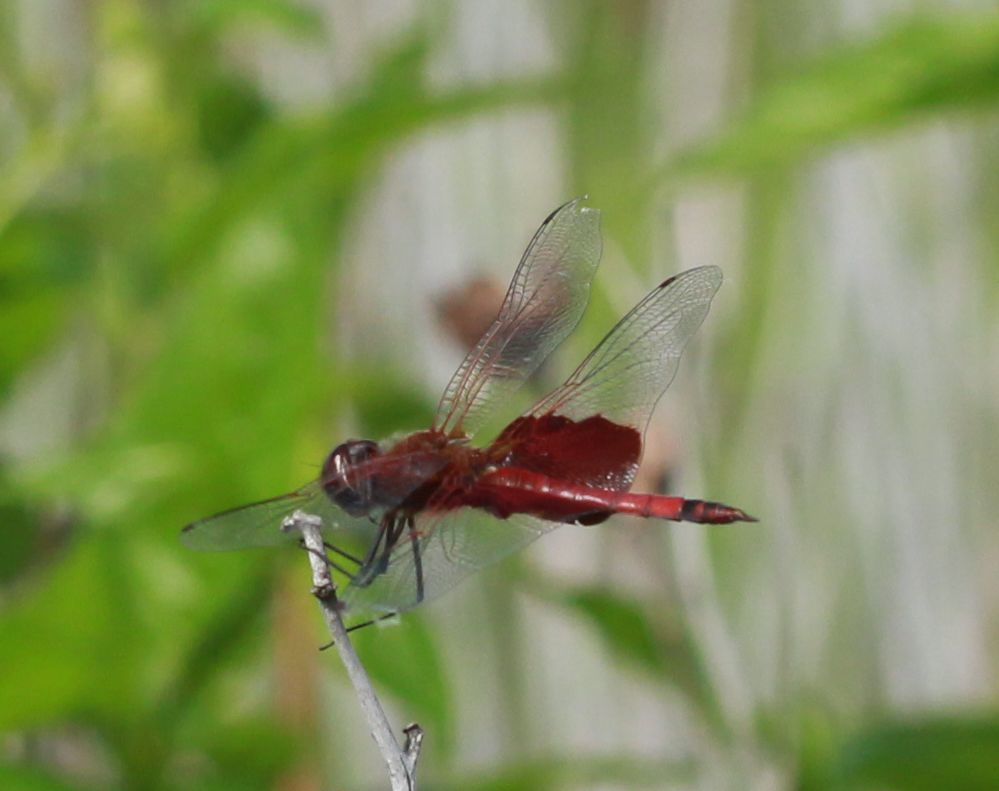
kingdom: Animalia
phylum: Arthropoda
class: Insecta
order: Odonata
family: Libellulidae
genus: Tramea
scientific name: Tramea carolina
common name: Carolina saddlebags
